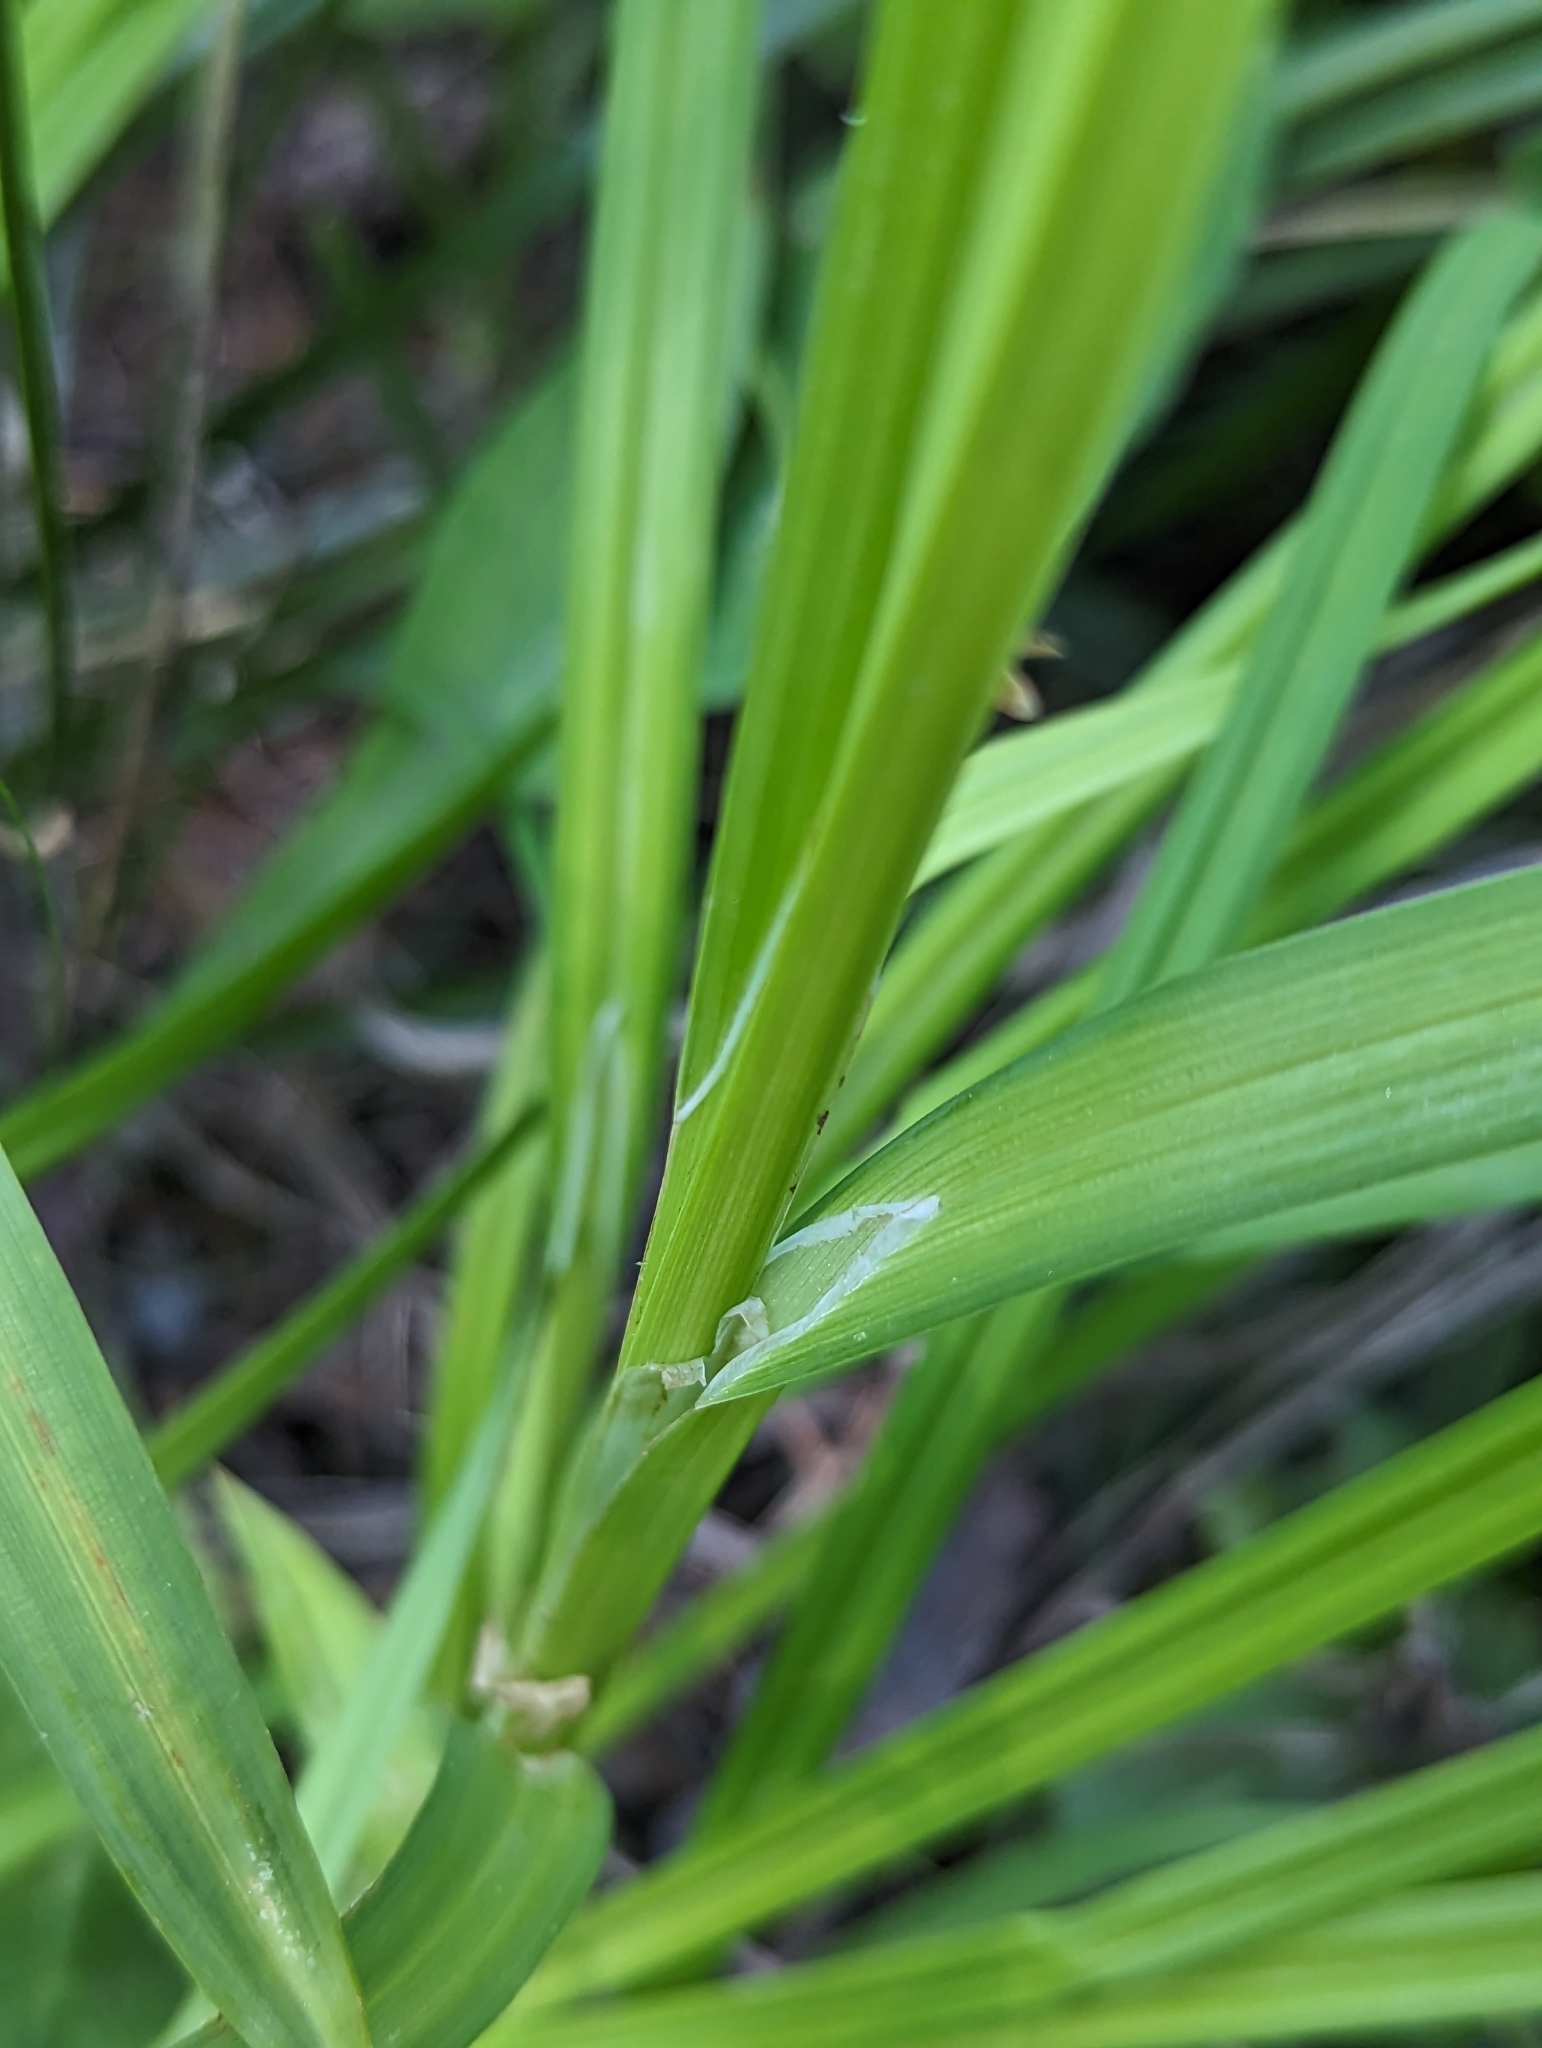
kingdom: Plantae
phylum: Tracheophyta
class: Liliopsida
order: Poales
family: Cyperaceae
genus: Carex
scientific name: Carex mertensii
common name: Mertens' sedge
